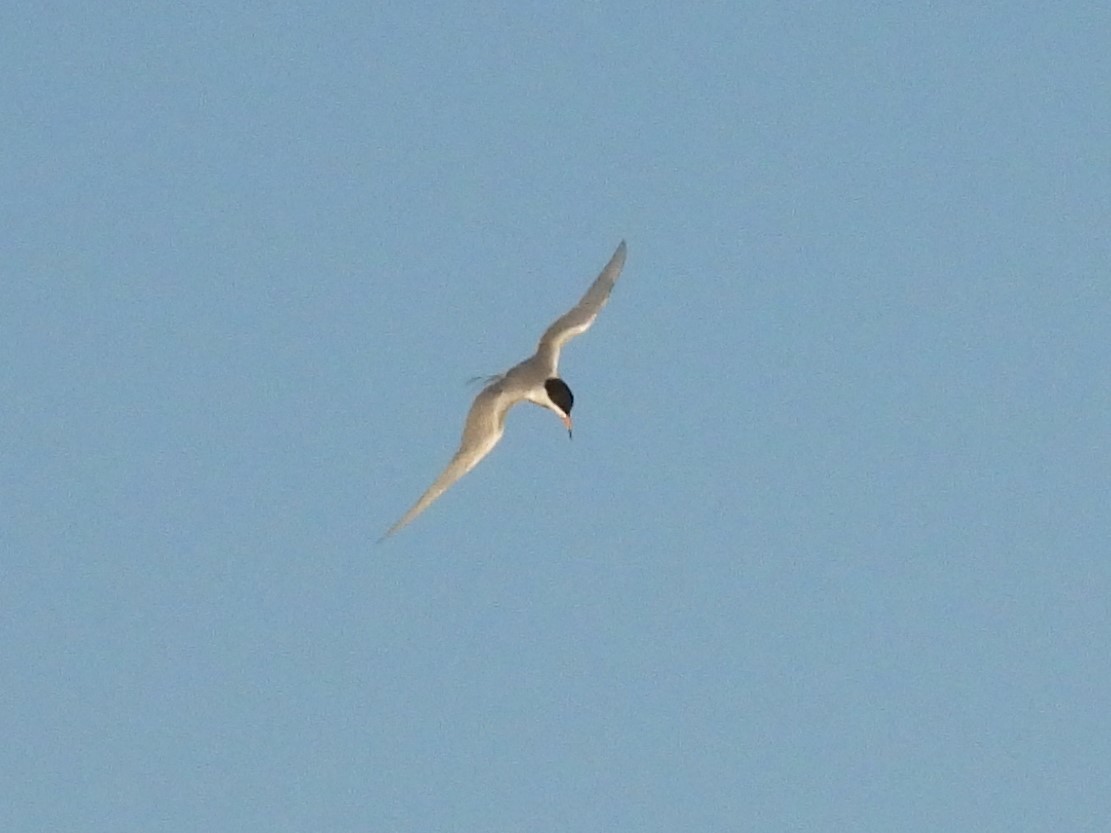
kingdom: Animalia
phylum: Chordata
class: Aves
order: Charadriiformes
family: Laridae
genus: Sterna
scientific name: Sterna forsteri
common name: Forster's tern
